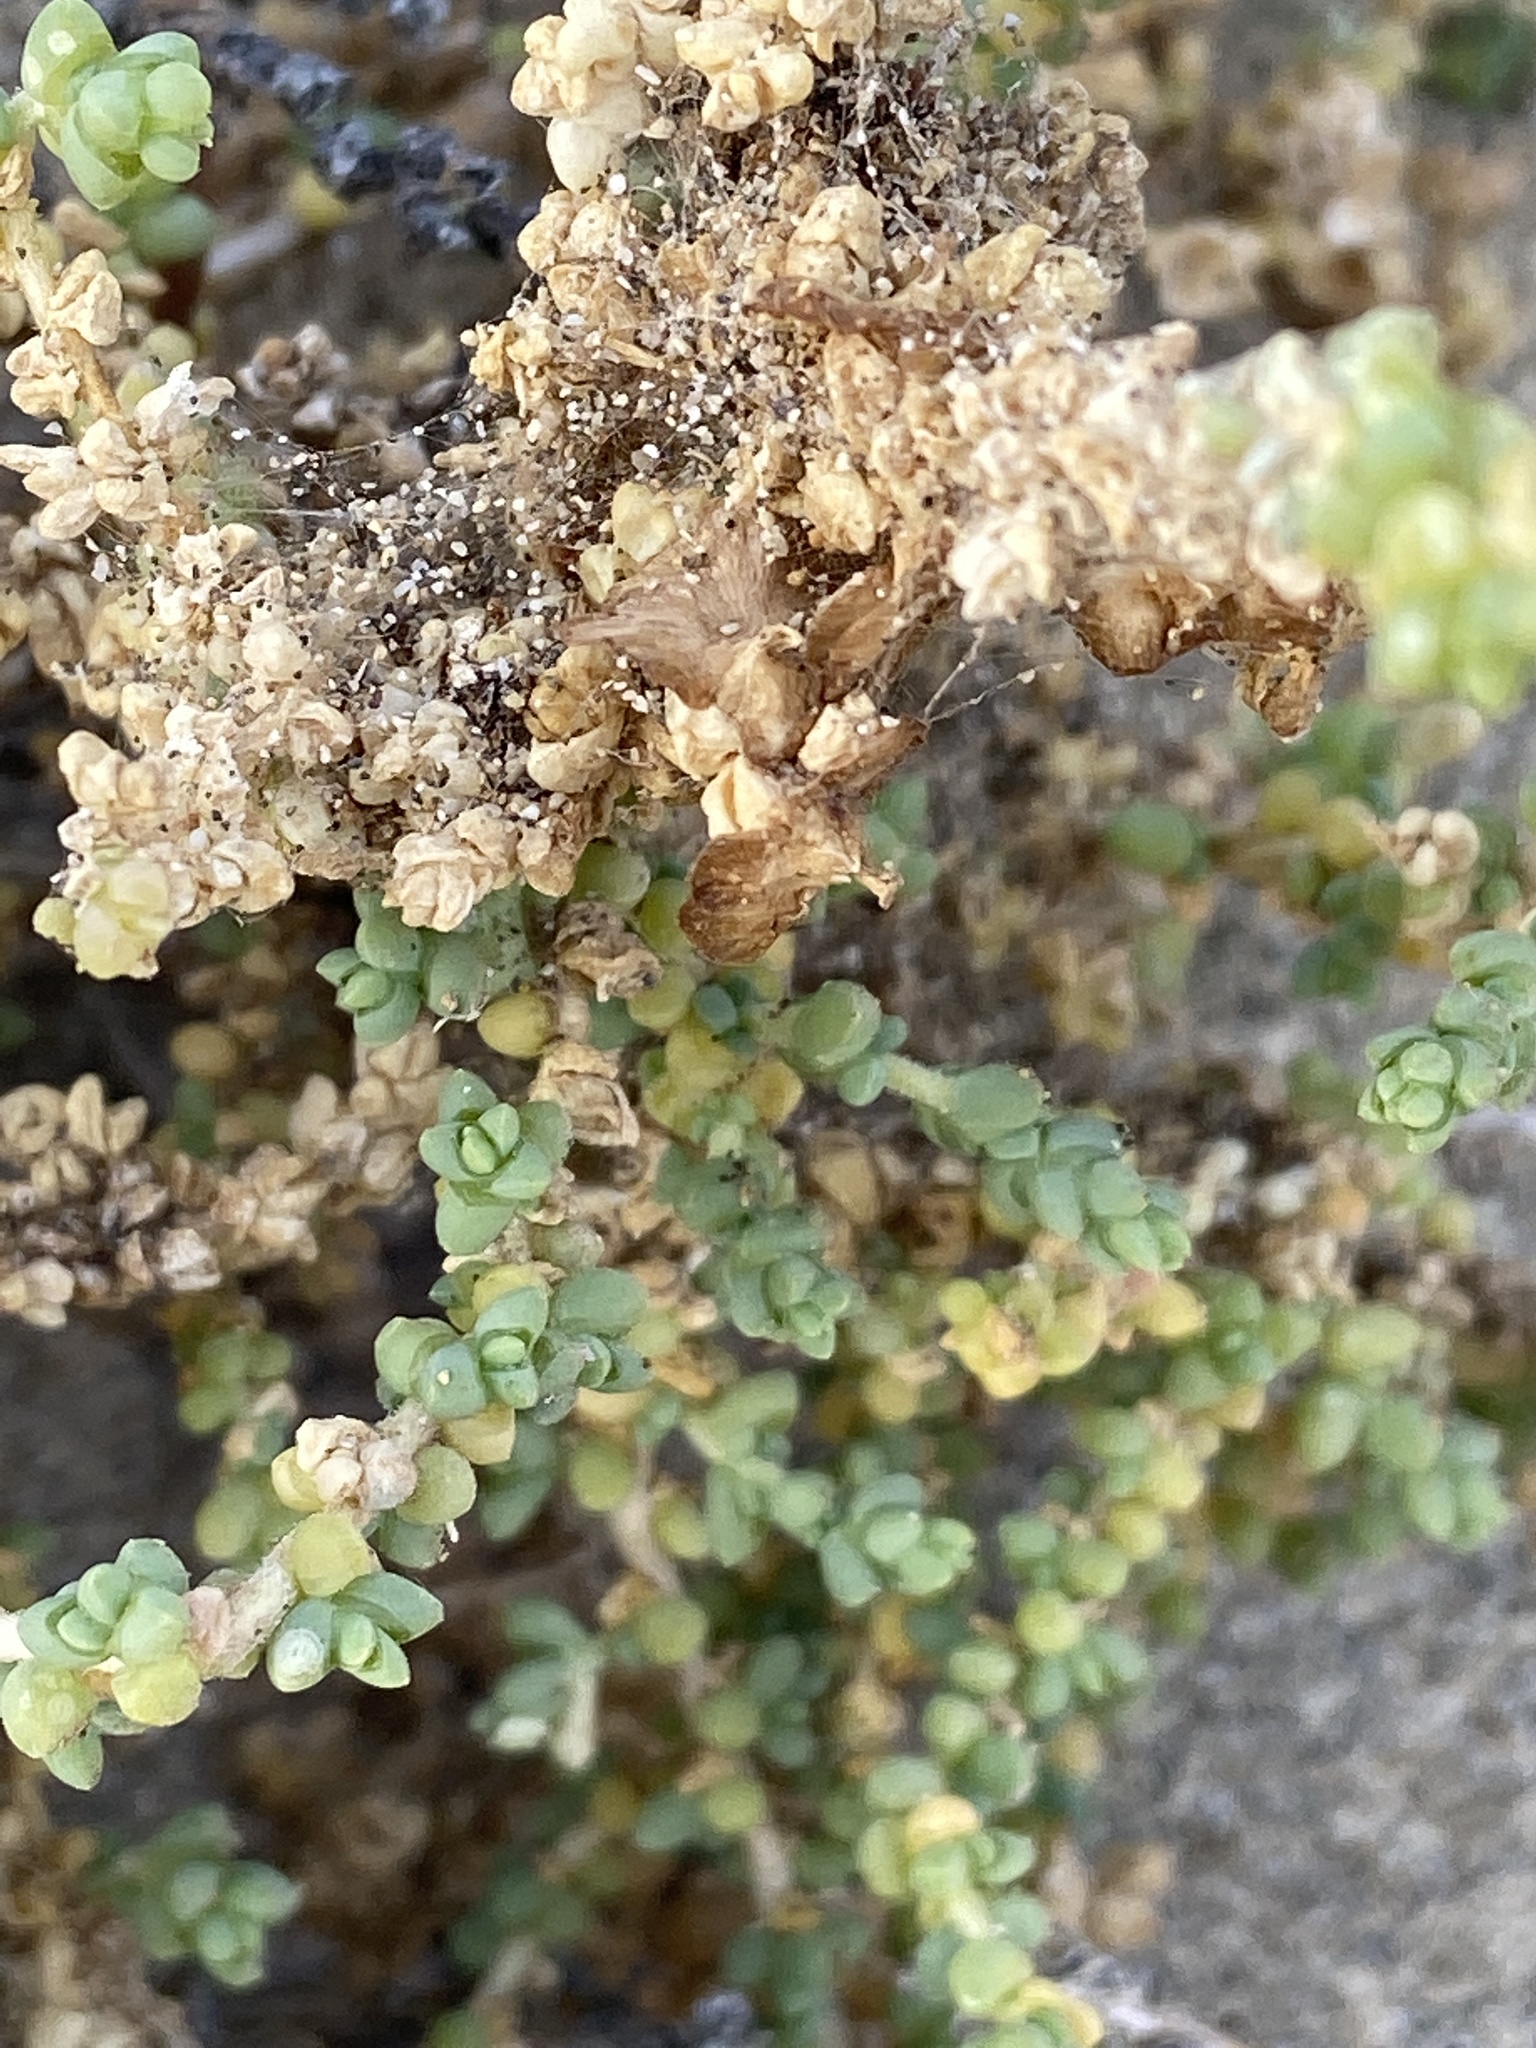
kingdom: Plantae
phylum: Tracheophyta
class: Magnoliopsida
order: Caryophyllales
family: Amaranthaceae
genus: Traganum
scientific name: Traganum moquinii
